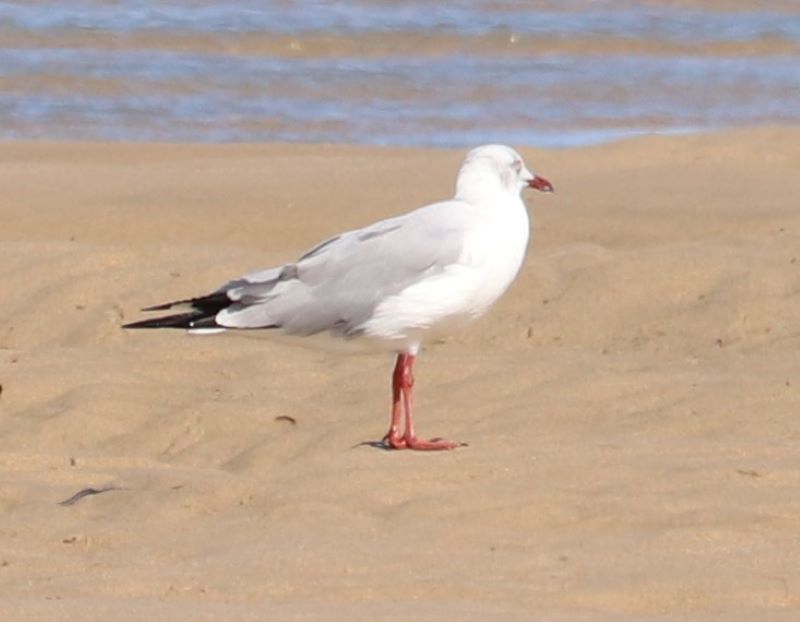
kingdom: Animalia
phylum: Chordata
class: Aves
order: Charadriiformes
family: Laridae
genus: Chroicocephalus
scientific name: Chroicocephalus cirrocephalus
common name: Grey-headed gull
